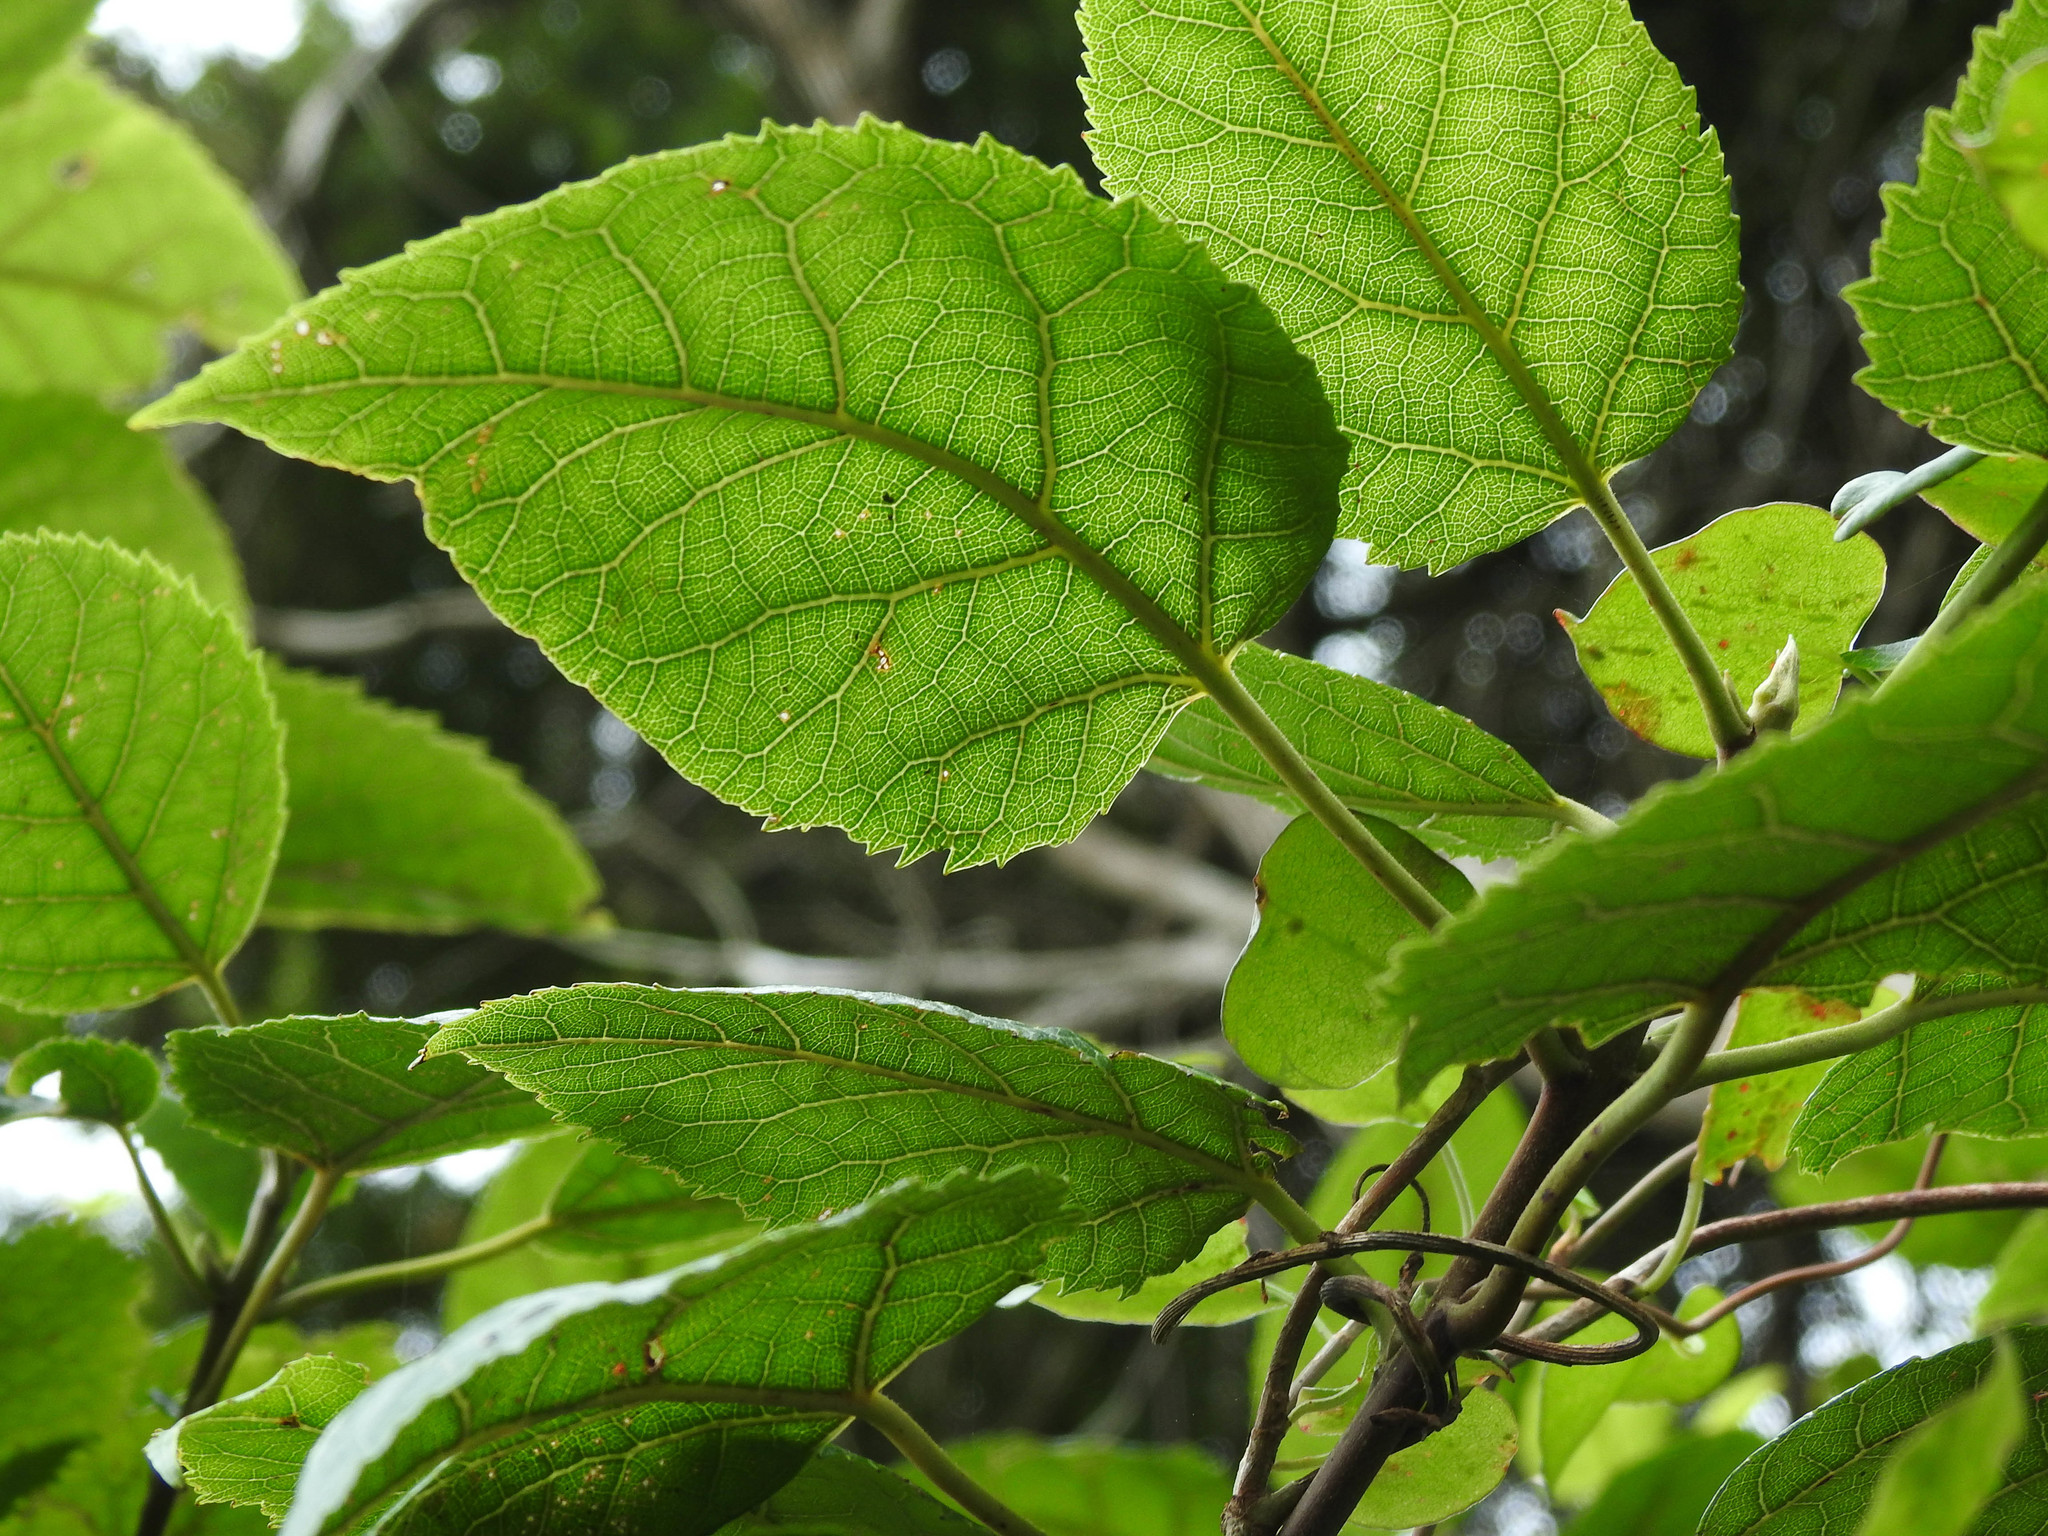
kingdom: Plantae
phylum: Tracheophyta
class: Magnoliopsida
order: Oxalidales
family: Elaeocarpaceae
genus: Aristotelia
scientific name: Aristotelia serrata
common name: New zealand wineberry
